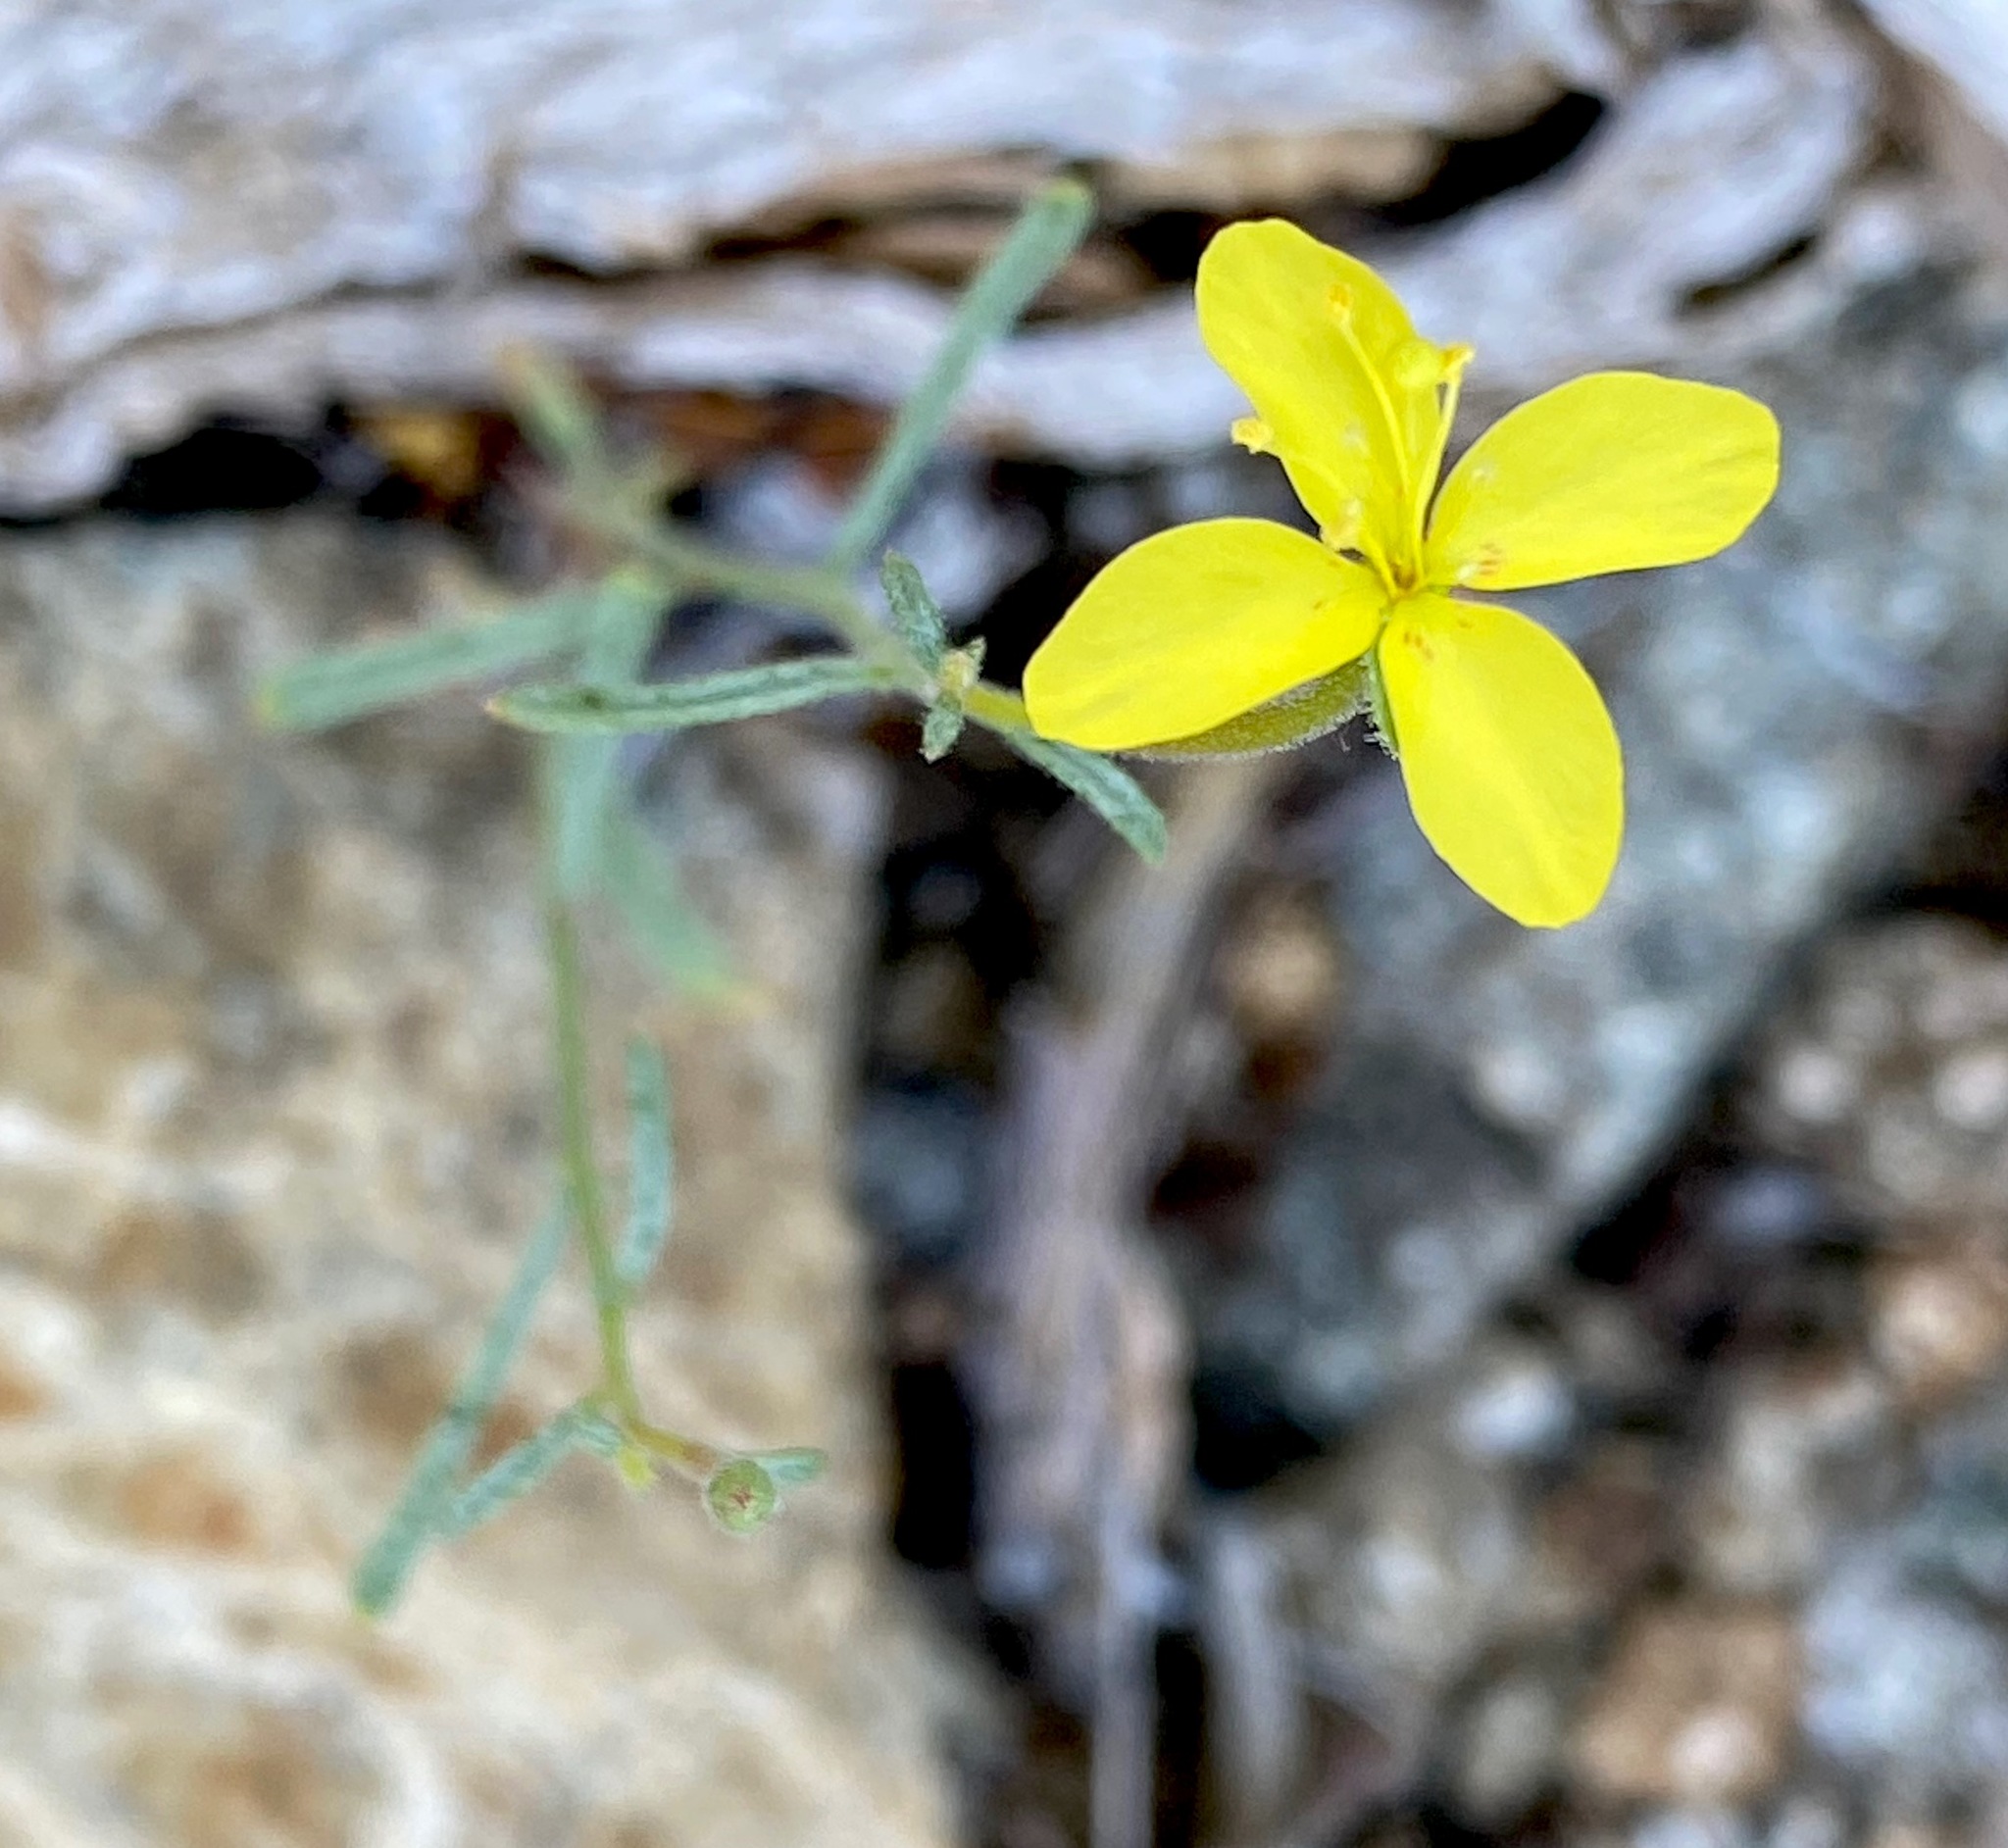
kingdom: Plantae
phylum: Tracheophyta
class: Magnoliopsida
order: Myrtales
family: Onagraceae
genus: Eulobus
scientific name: Eulobus californicus
